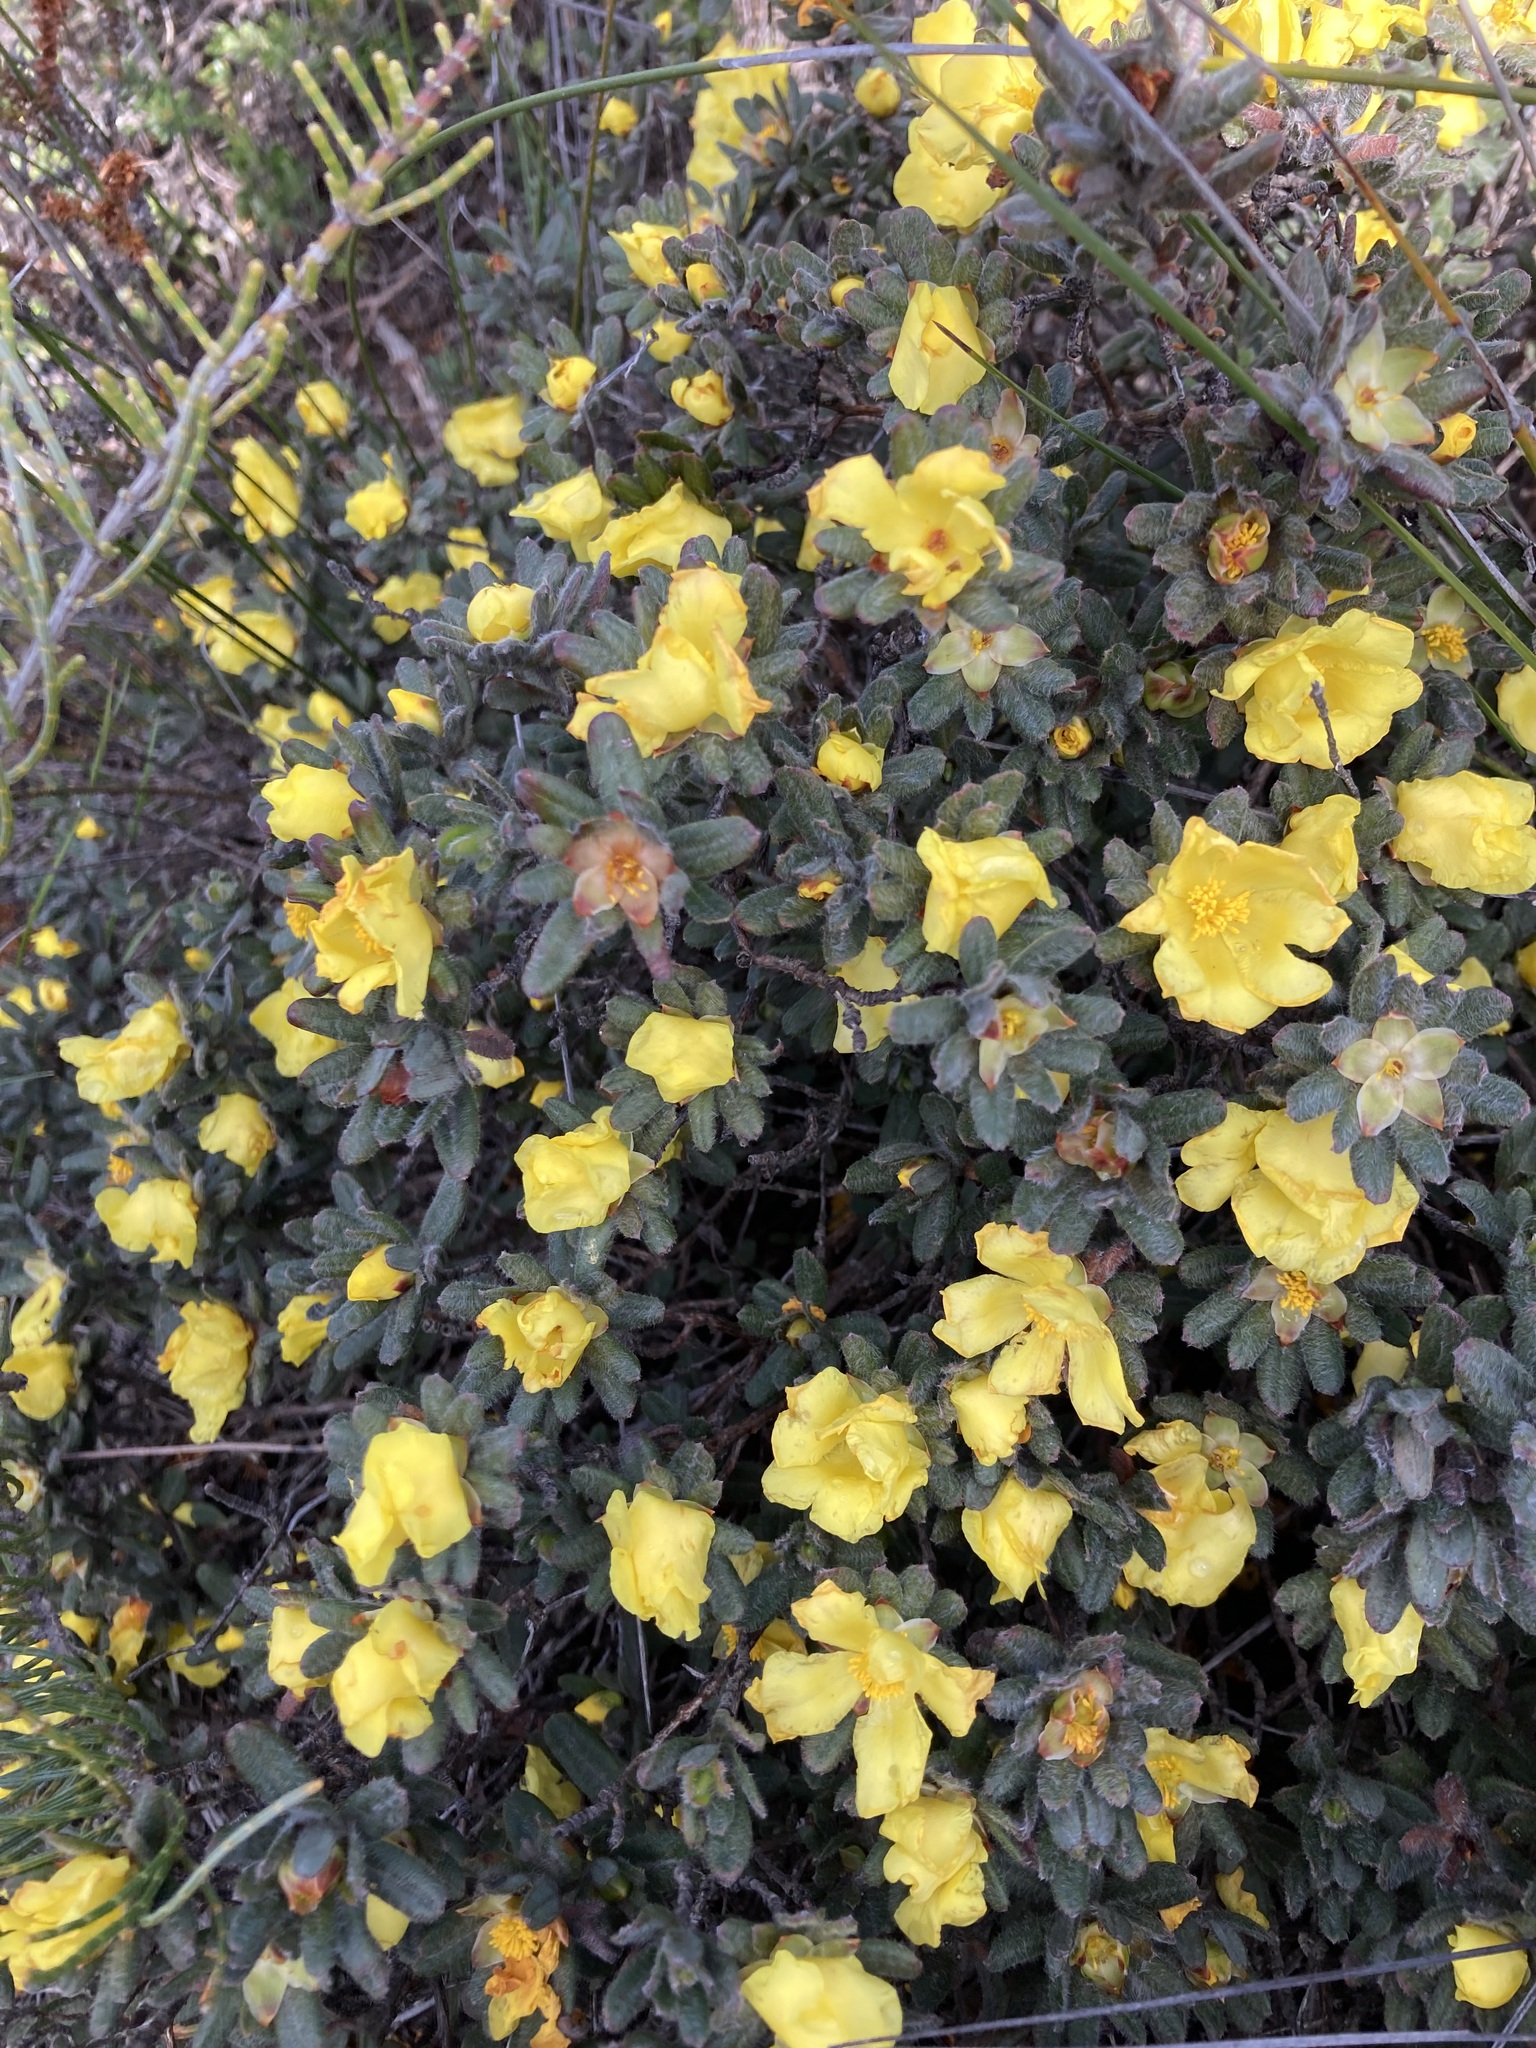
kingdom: Plantae
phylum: Tracheophyta
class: Magnoliopsida
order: Dilleniales
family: Dilleniaceae
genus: Hibbertia
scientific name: Hibbertia mylnei
